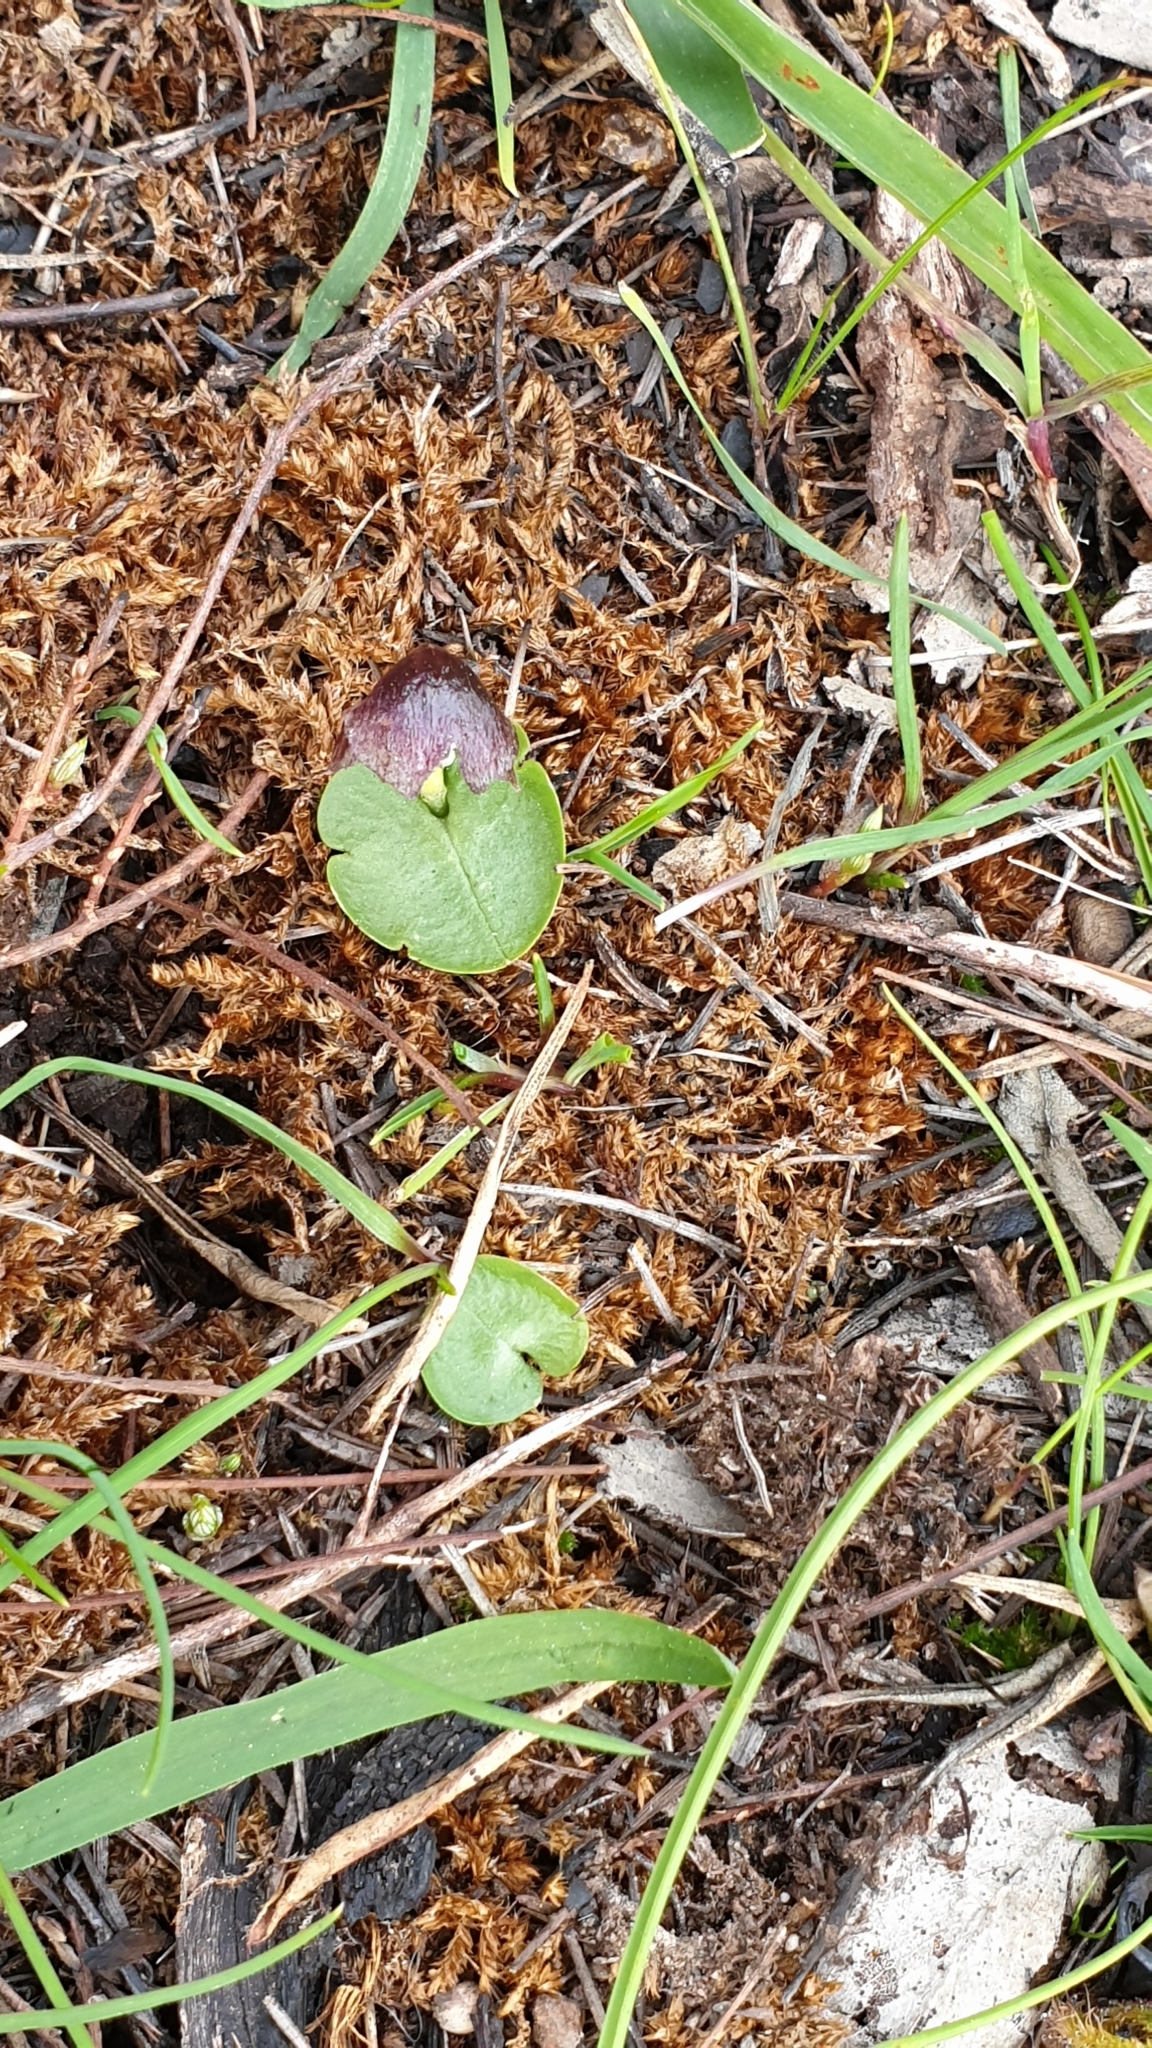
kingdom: Plantae
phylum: Tracheophyta
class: Liliopsida
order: Asparagales
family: Orchidaceae
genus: Corybas
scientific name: Corybas diemenicus
